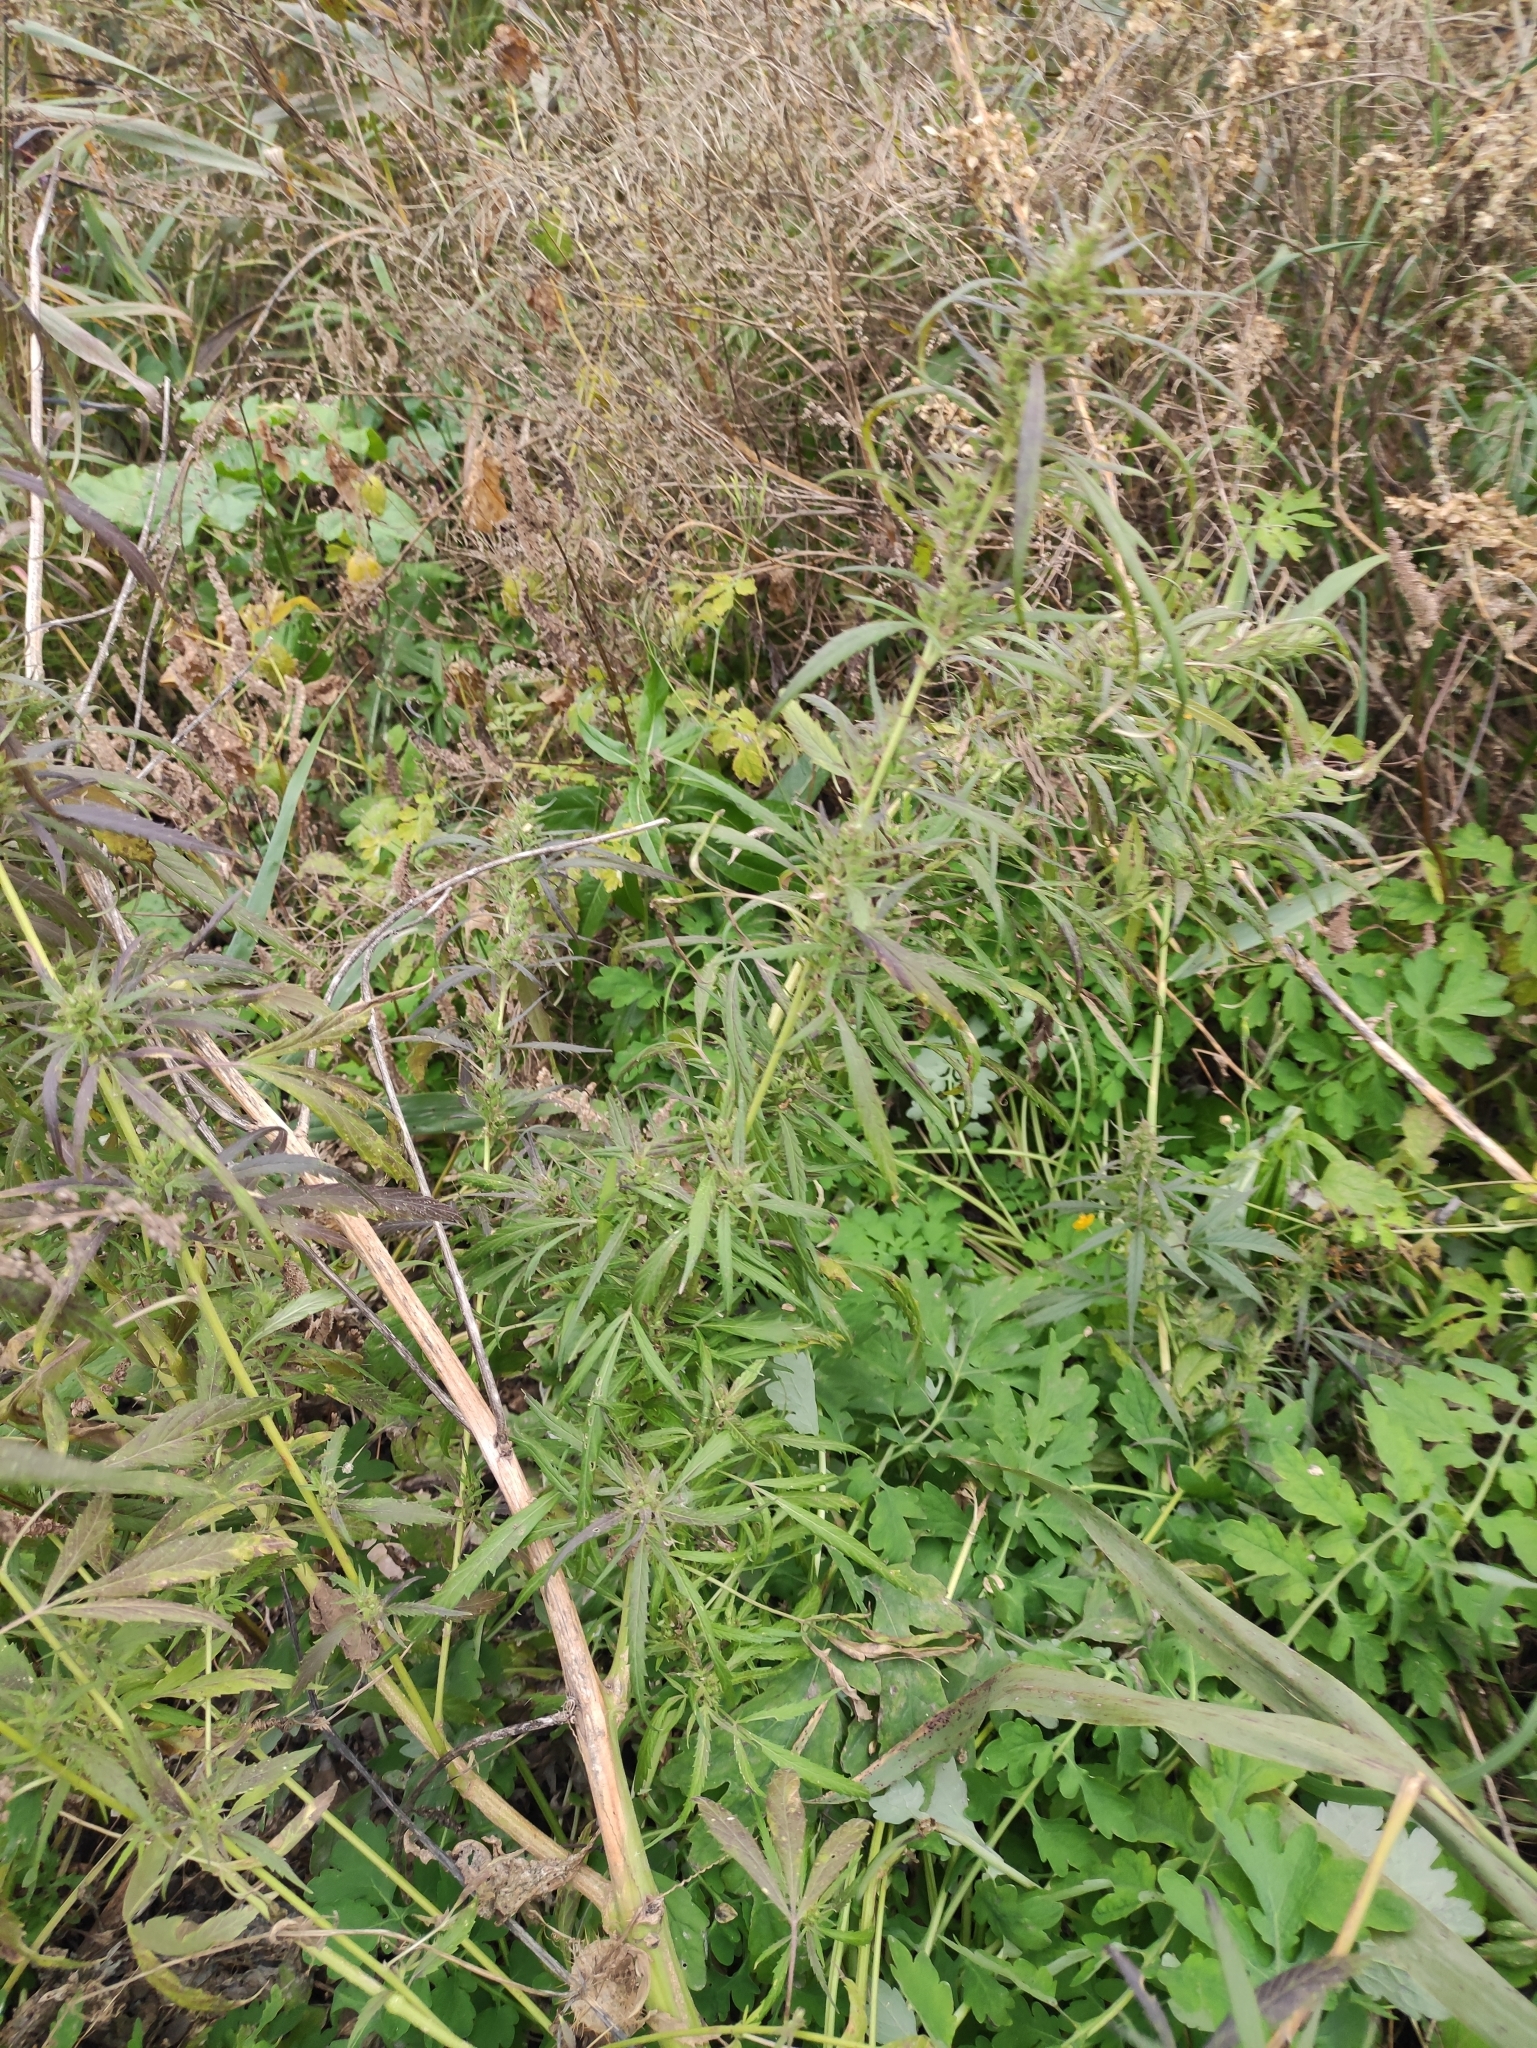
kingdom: Plantae
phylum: Tracheophyta
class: Magnoliopsida
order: Rosales
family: Cannabaceae
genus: Cannabis
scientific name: Cannabis sativa
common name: Hemp
